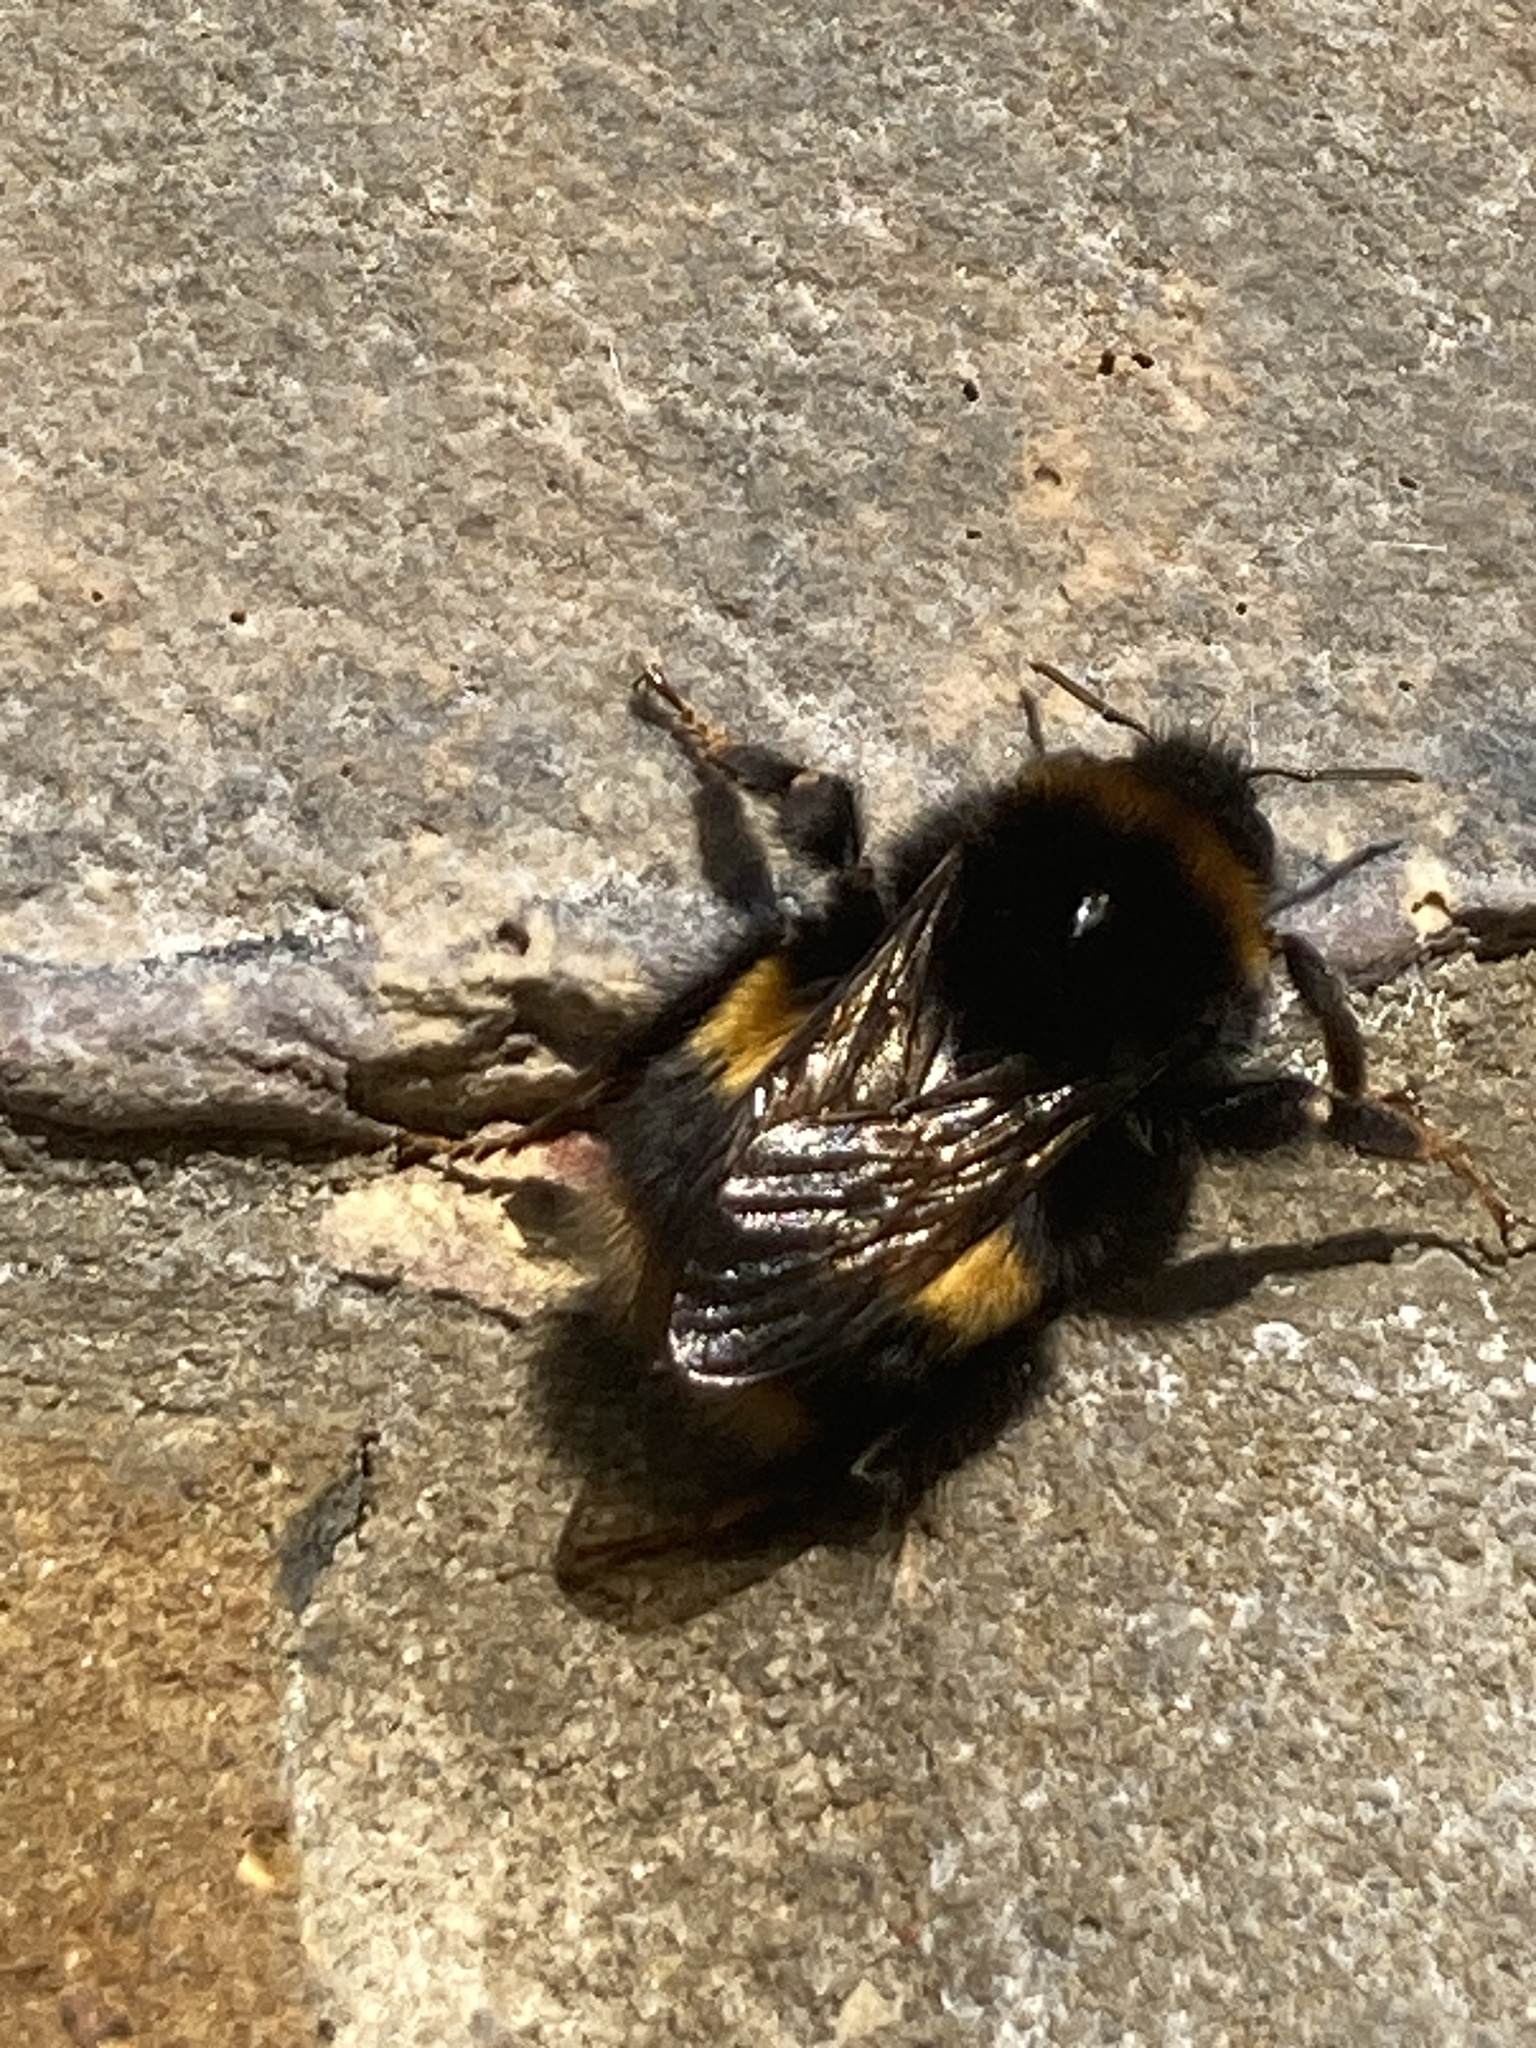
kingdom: Animalia
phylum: Arthropoda
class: Insecta
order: Hymenoptera
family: Apidae
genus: Bombus
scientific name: Bombus terrestris
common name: Buff-tailed bumblebee
